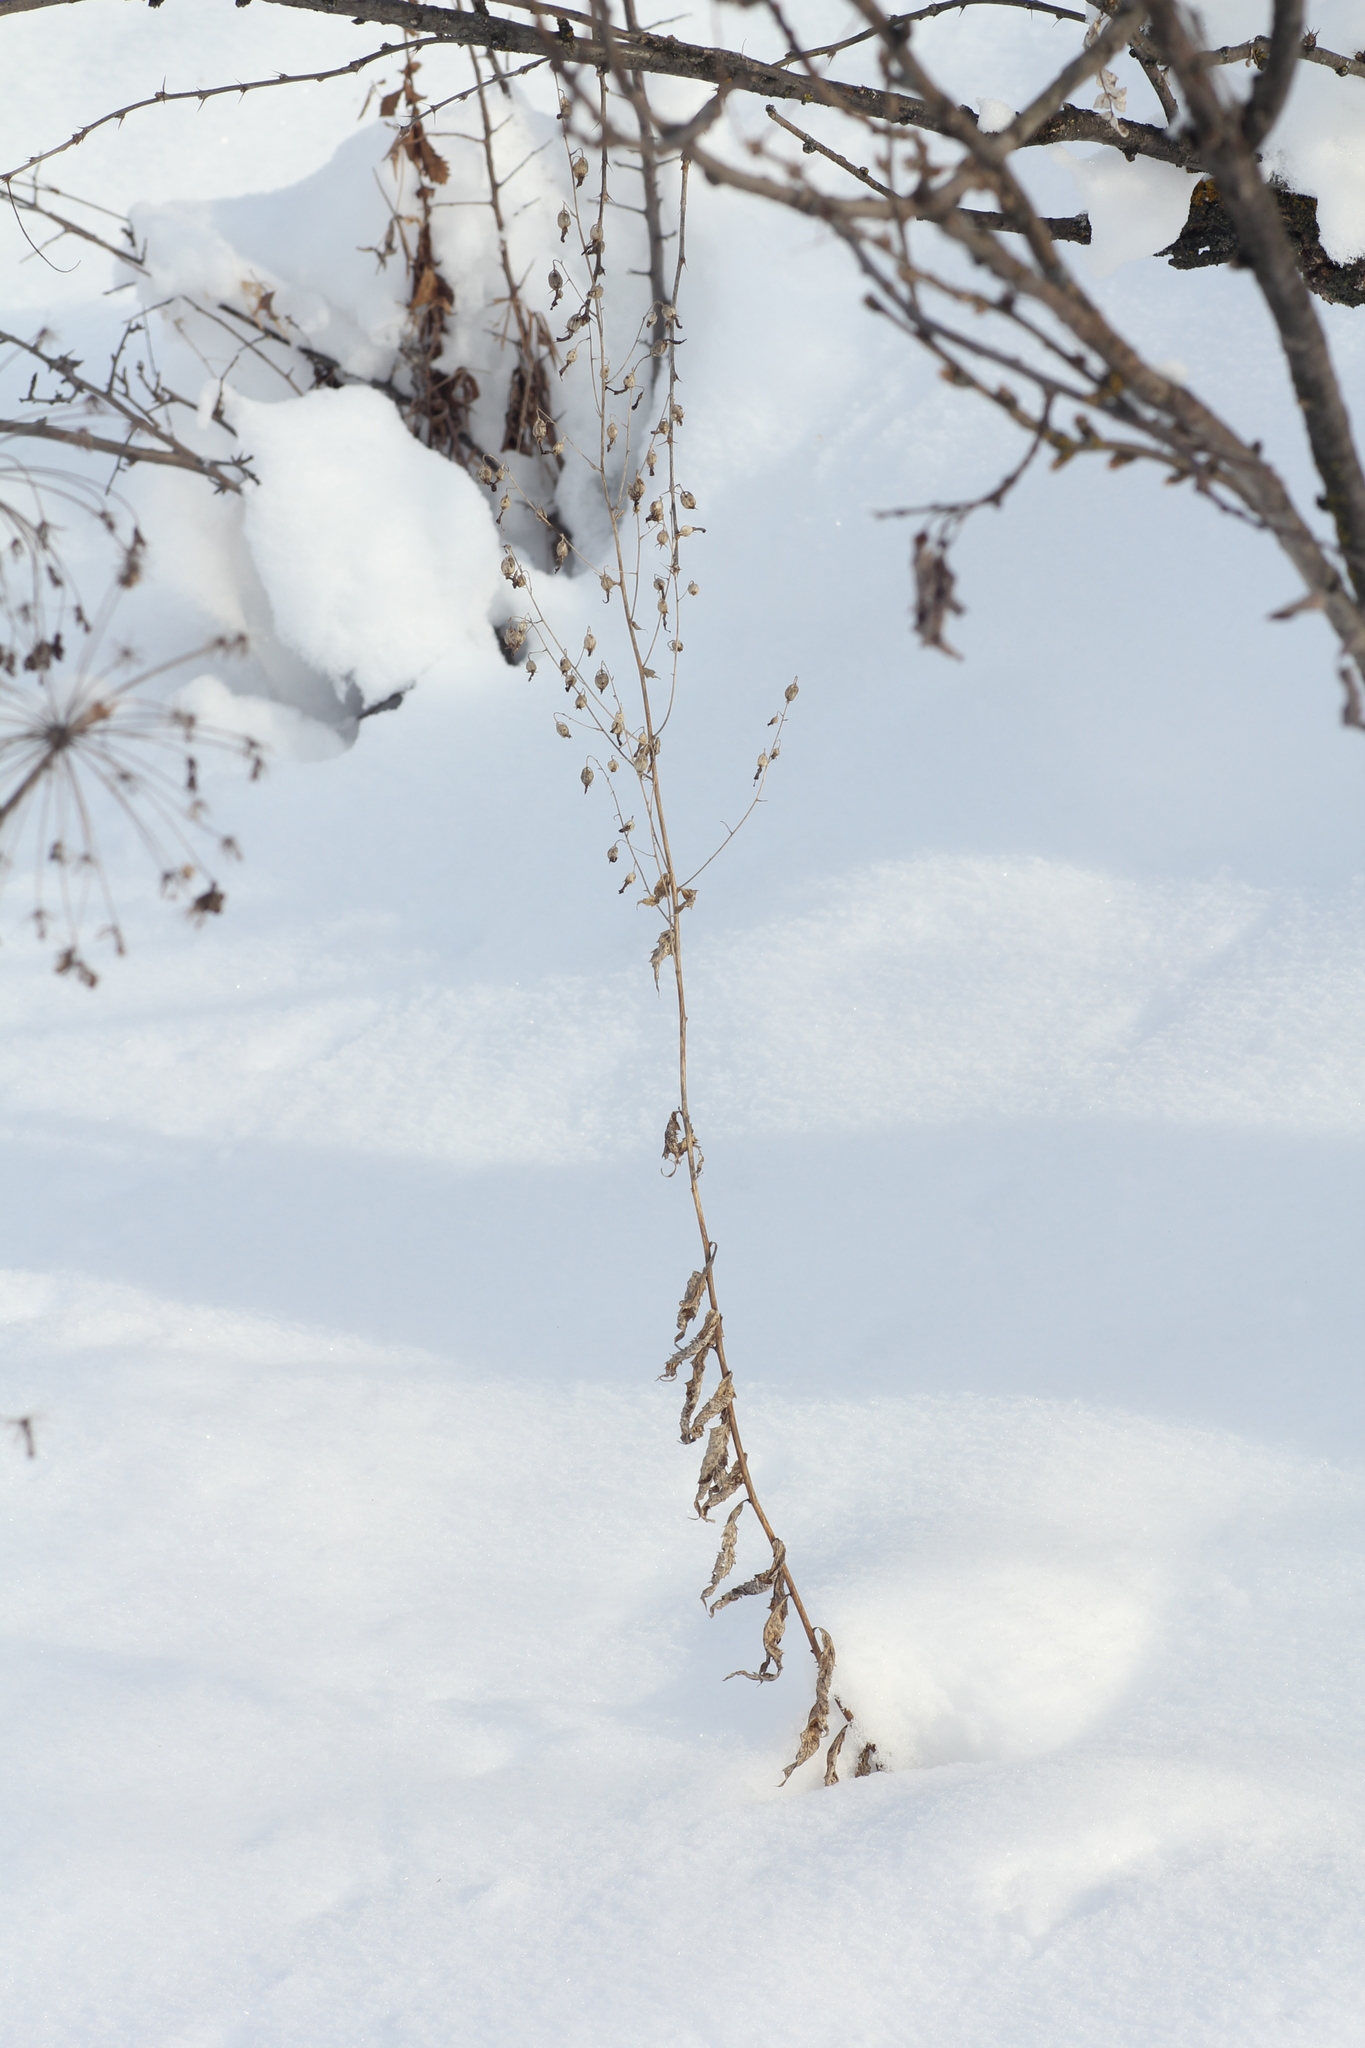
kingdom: Plantae
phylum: Tracheophyta
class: Magnoliopsida
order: Asterales
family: Campanulaceae
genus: Adenophora
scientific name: Adenophora liliifolia
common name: Lilyleaf ladybells
